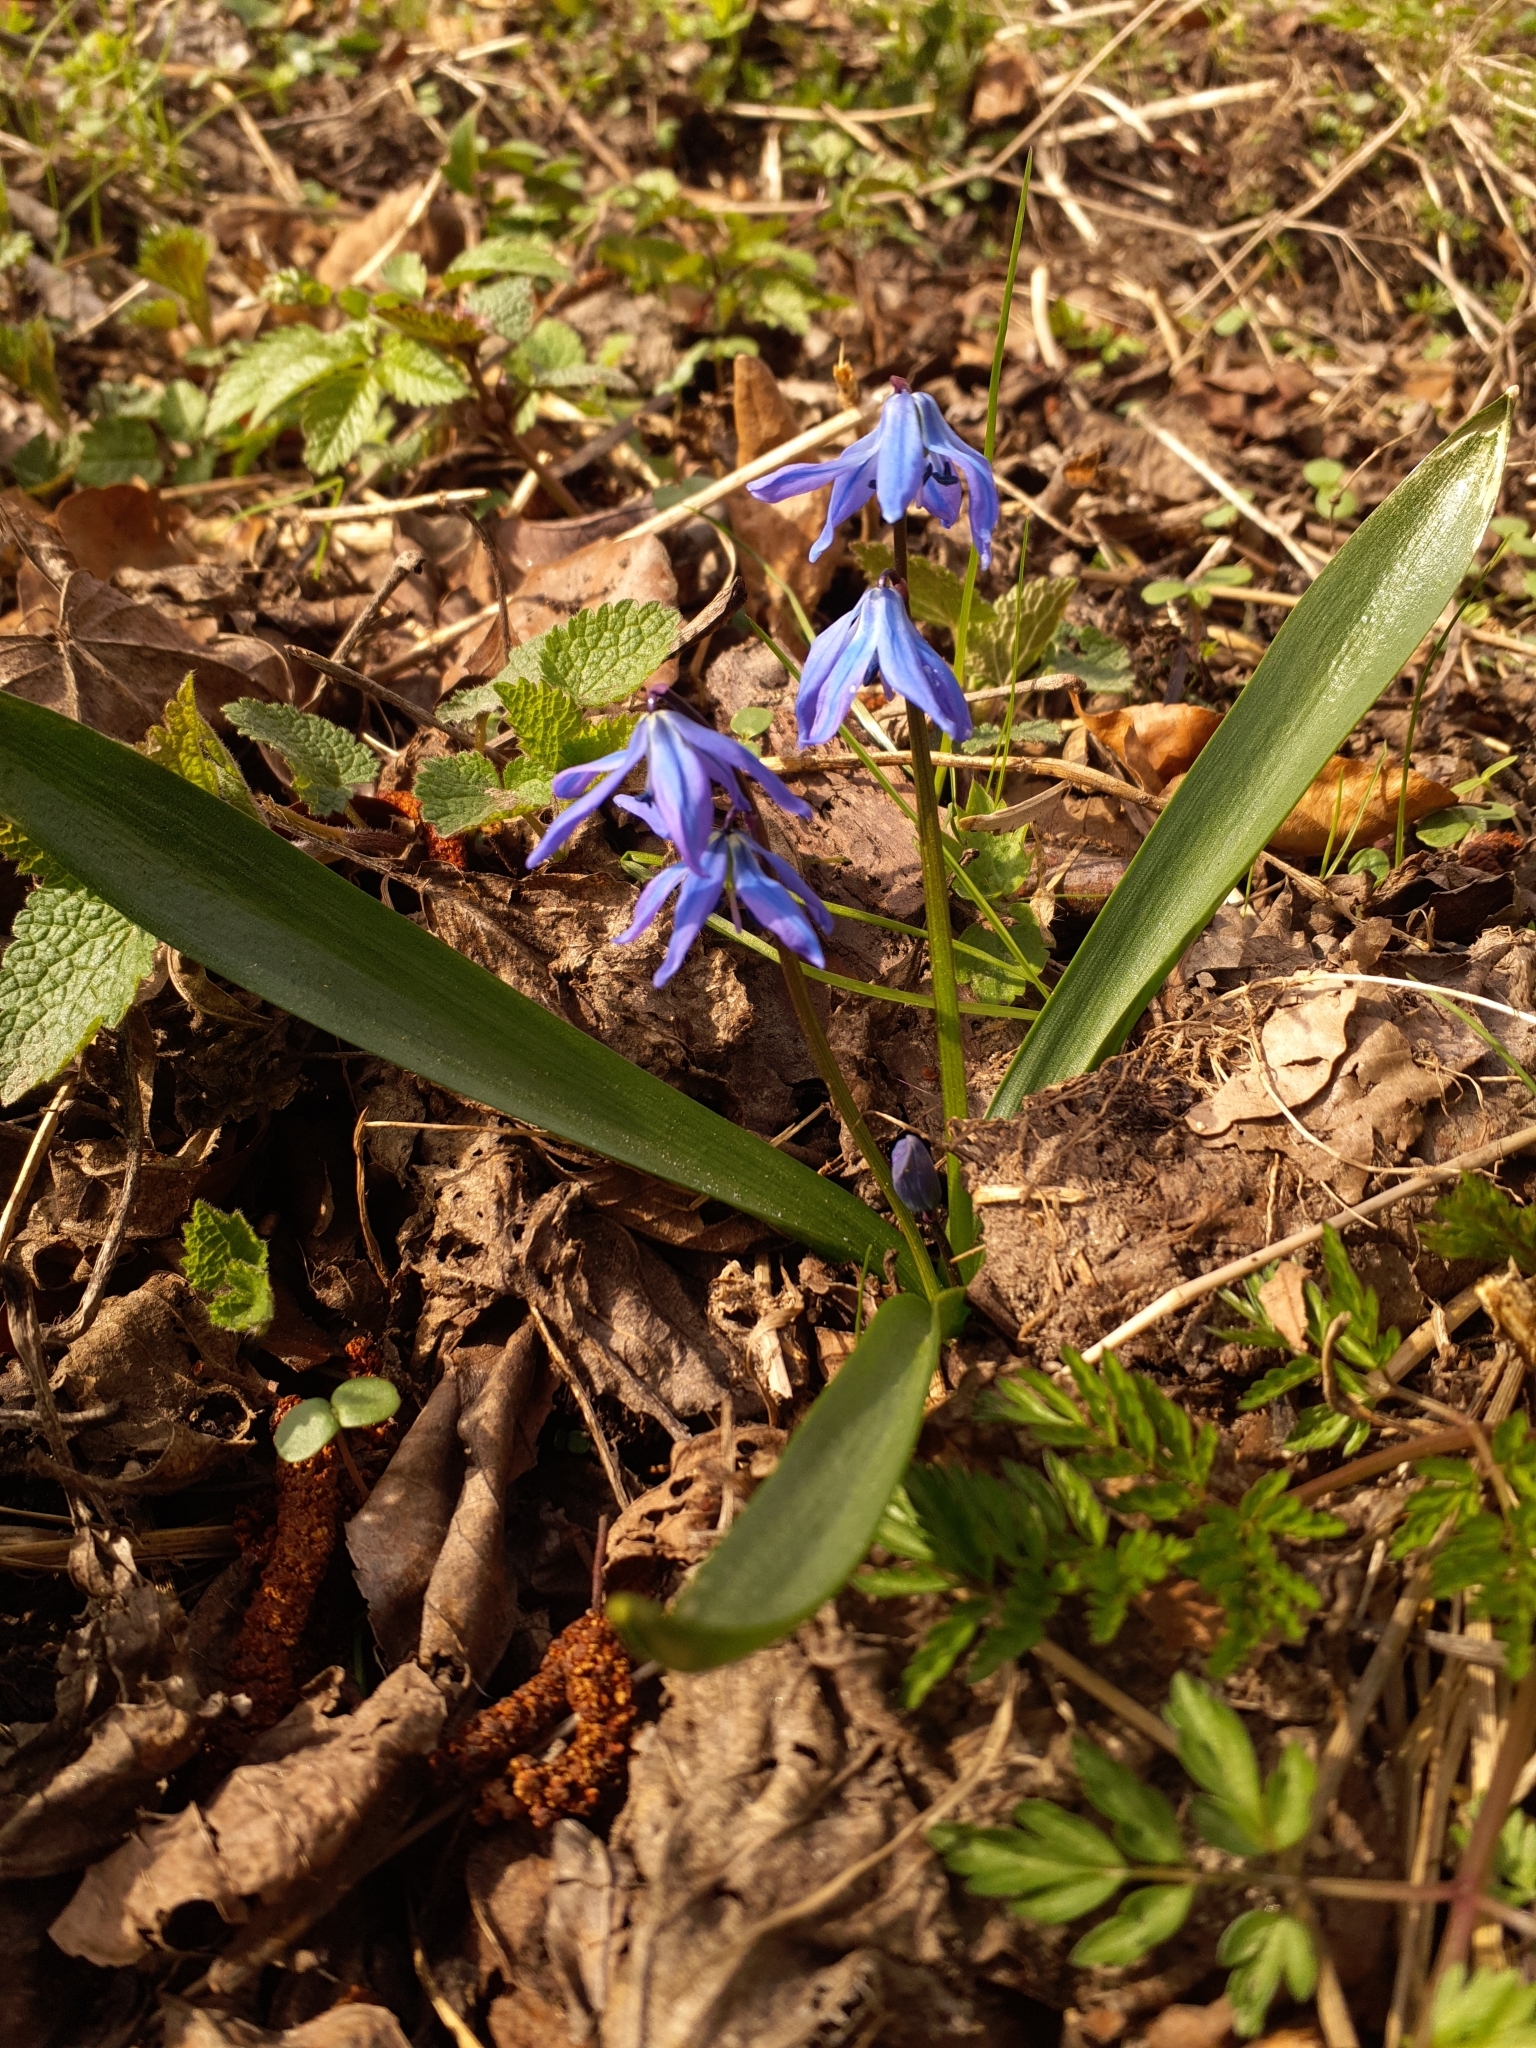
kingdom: Plantae
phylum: Tracheophyta
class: Liliopsida
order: Asparagales
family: Asparagaceae
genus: Scilla
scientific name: Scilla siberica
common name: Siberian squill
